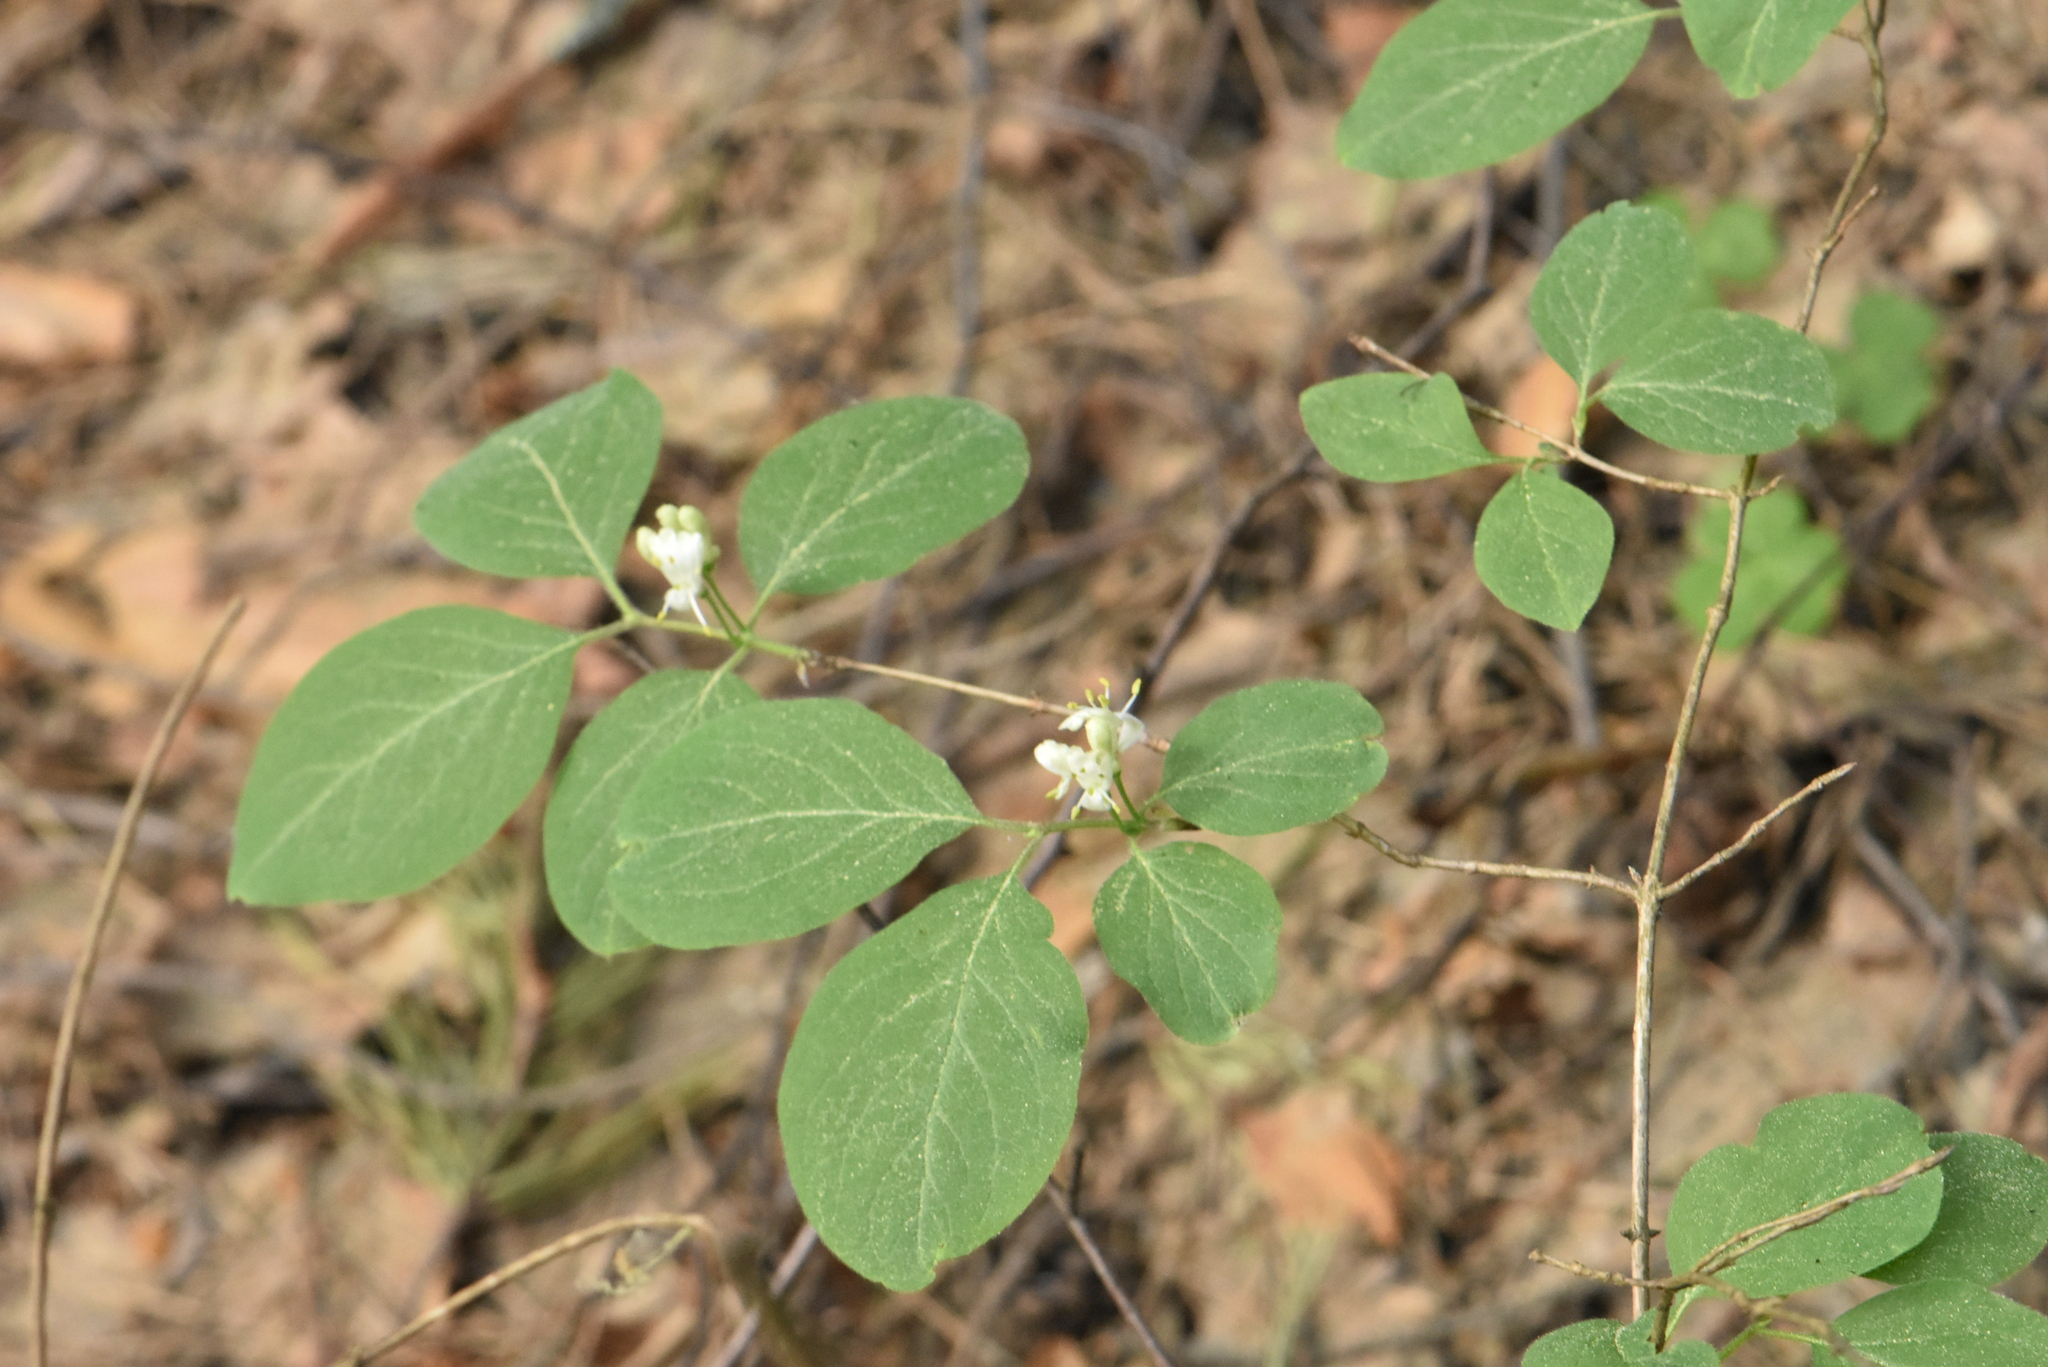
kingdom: Plantae
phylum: Tracheophyta
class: Magnoliopsida
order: Dipsacales
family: Caprifoliaceae
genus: Lonicera
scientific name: Lonicera xylosteum
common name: Fly honeysuckle
